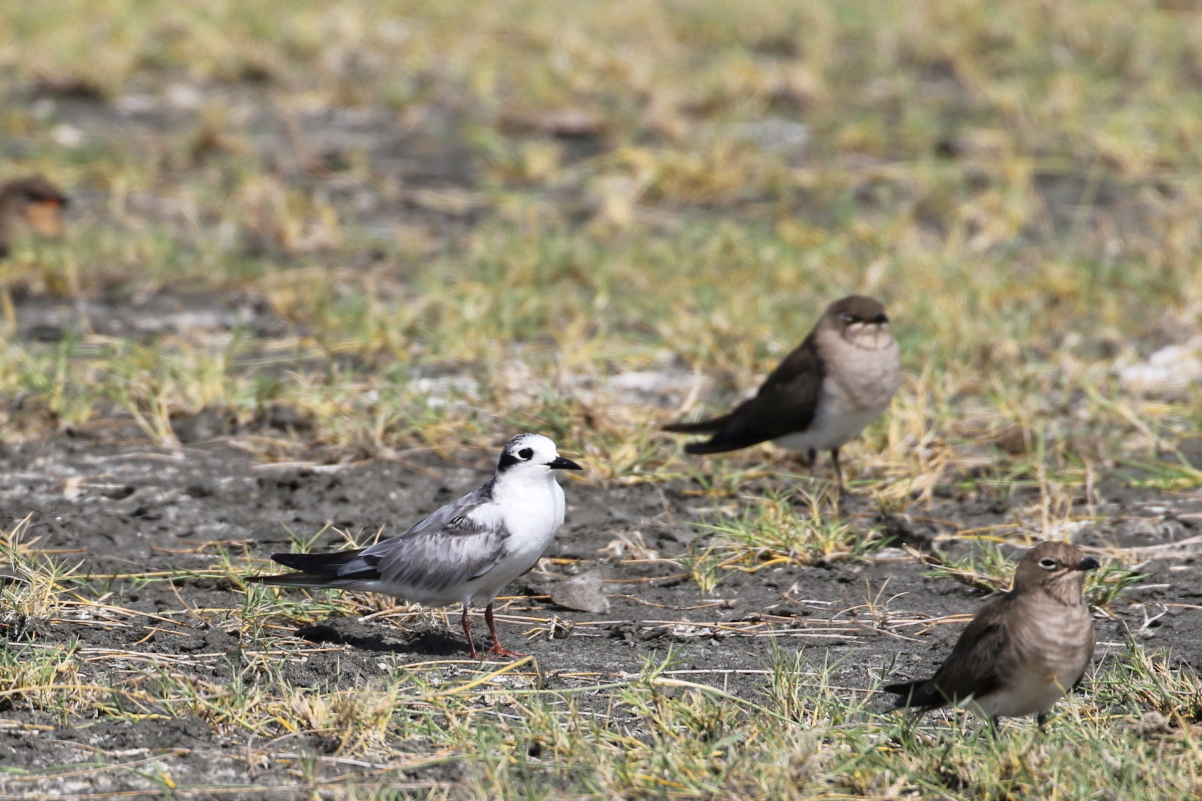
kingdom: Animalia
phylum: Chordata
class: Aves
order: Charadriiformes
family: Laridae
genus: Chlidonias
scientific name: Chlidonias leucopterus
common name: White-winged tern
